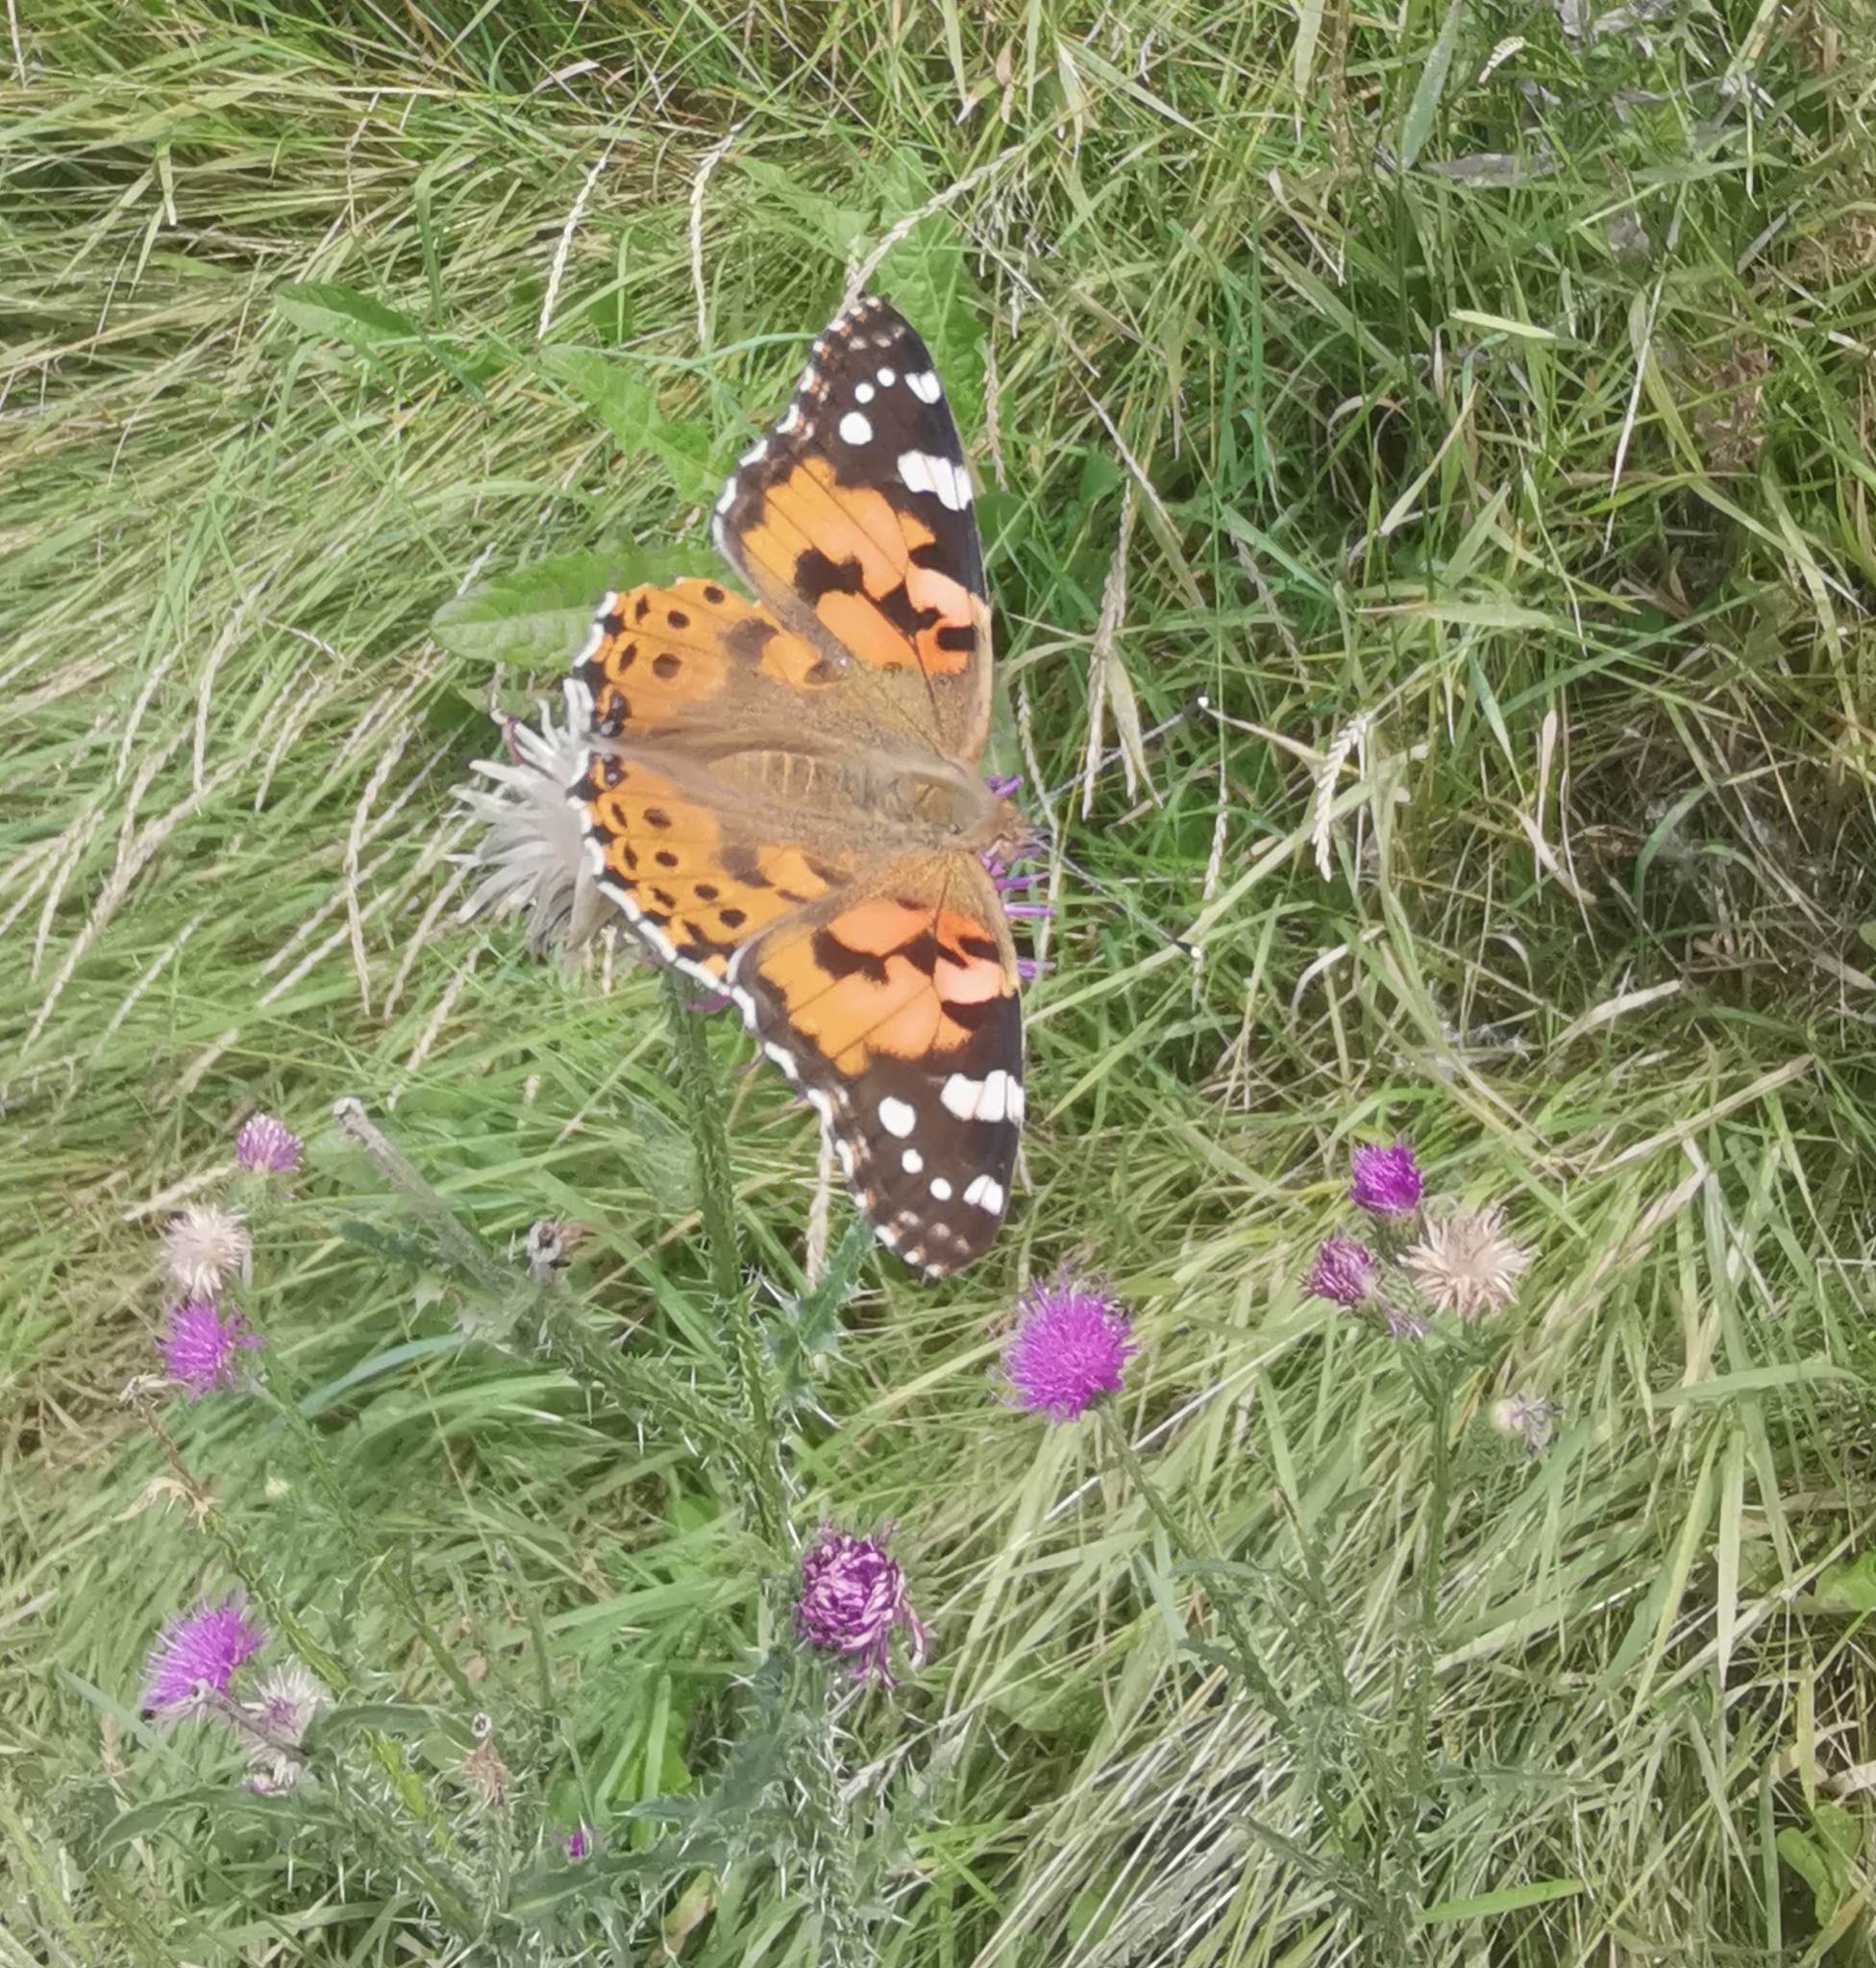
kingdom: Animalia
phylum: Arthropoda
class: Insecta
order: Lepidoptera
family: Nymphalidae
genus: Vanessa
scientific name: Vanessa cardui
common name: Painted lady
